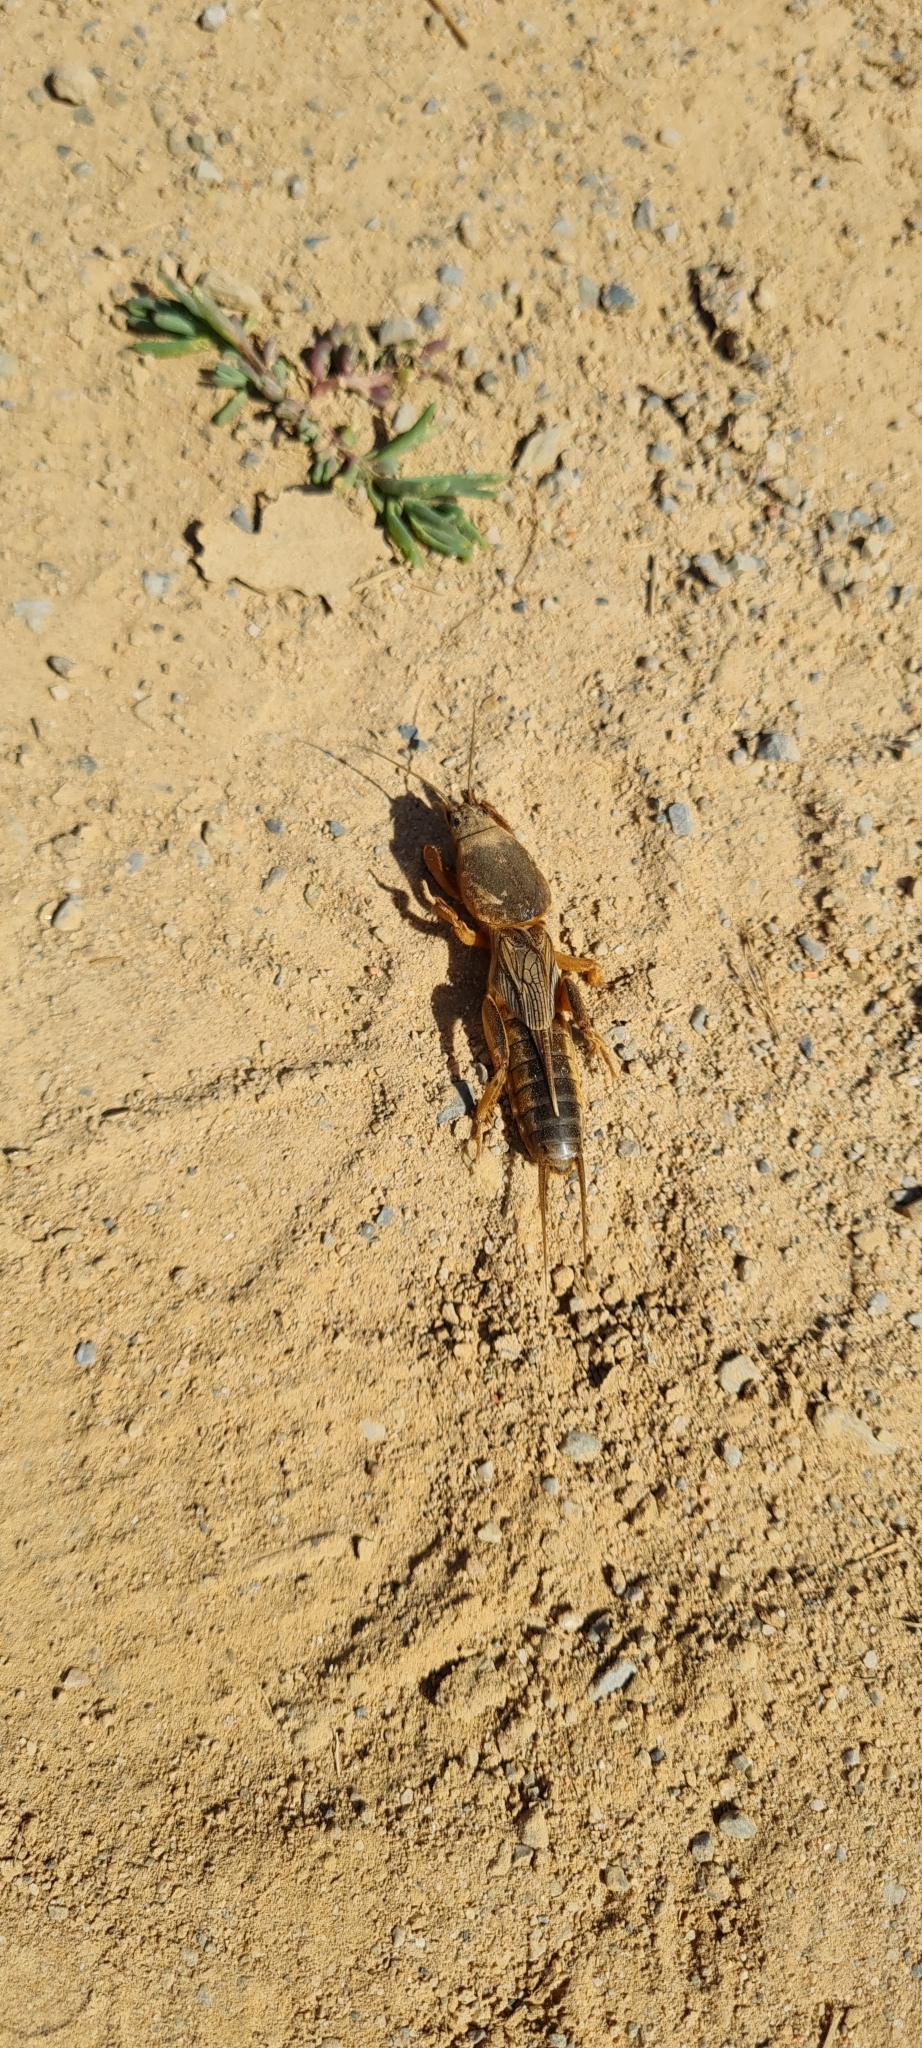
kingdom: Animalia
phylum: Arthropoda
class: Insecta
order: Orthoptera
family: Gryllotalpidae
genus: Gryllotalpa
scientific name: Gryllotalpa septemdecimchromosomica
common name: Seventeen-chromosome mole-cricket
